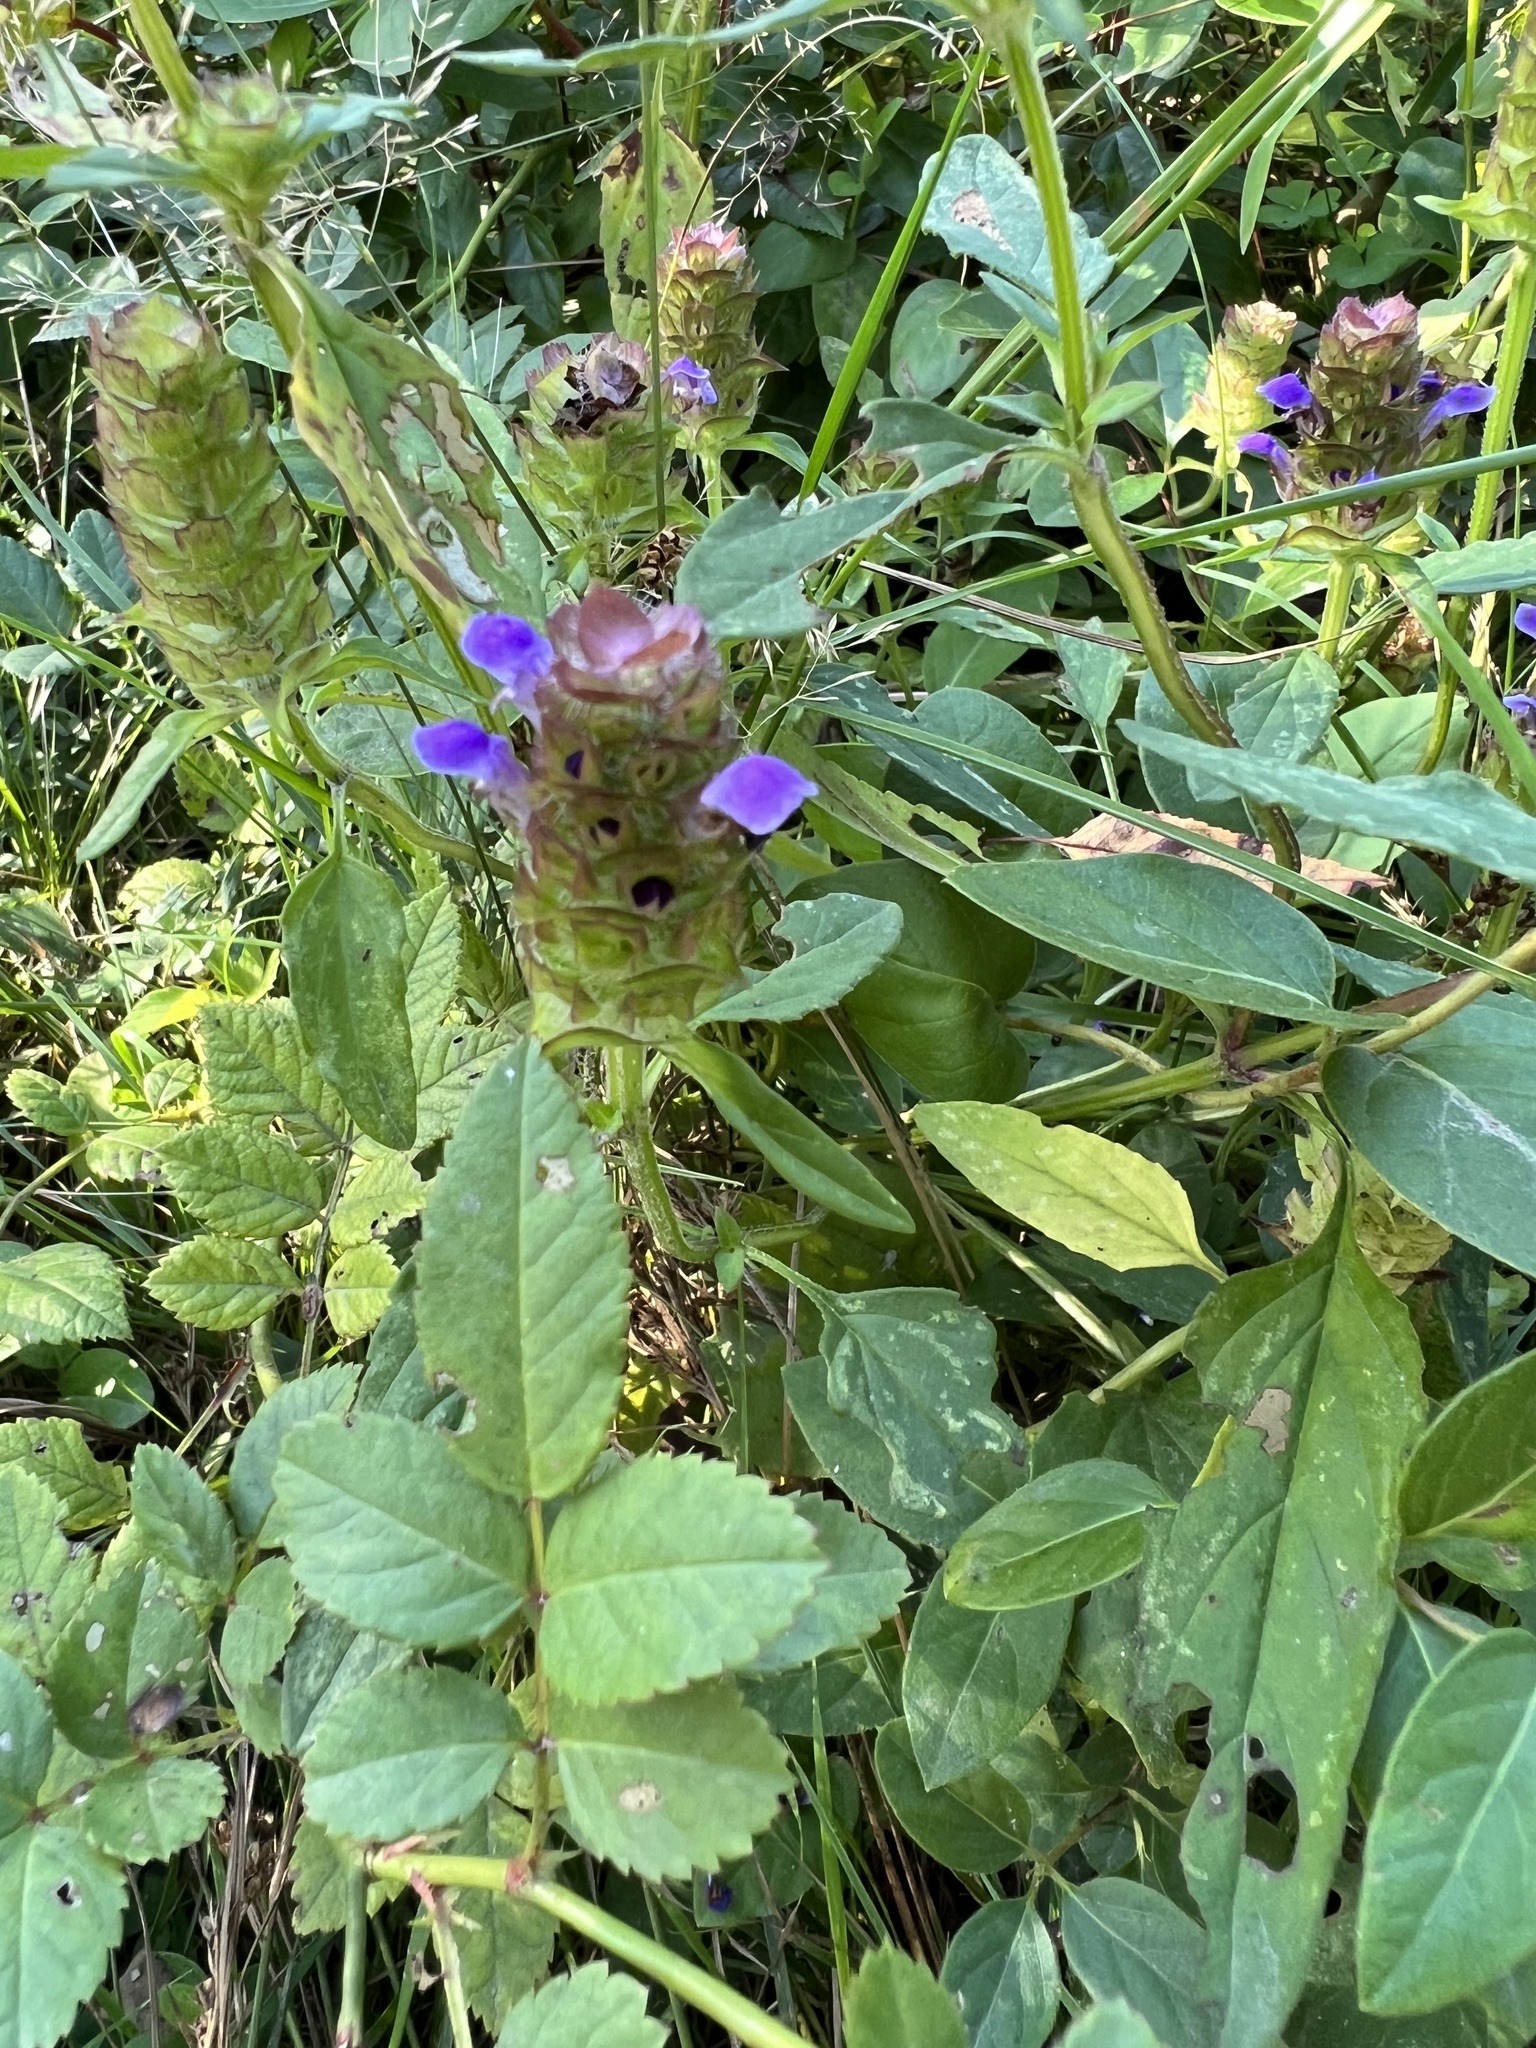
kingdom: Plantae
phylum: Tracheophyta
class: Magnoliopsida
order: Lamiales
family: Lamiaceae
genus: Prunella
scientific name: Prunella vulgaris
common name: Heal-all
